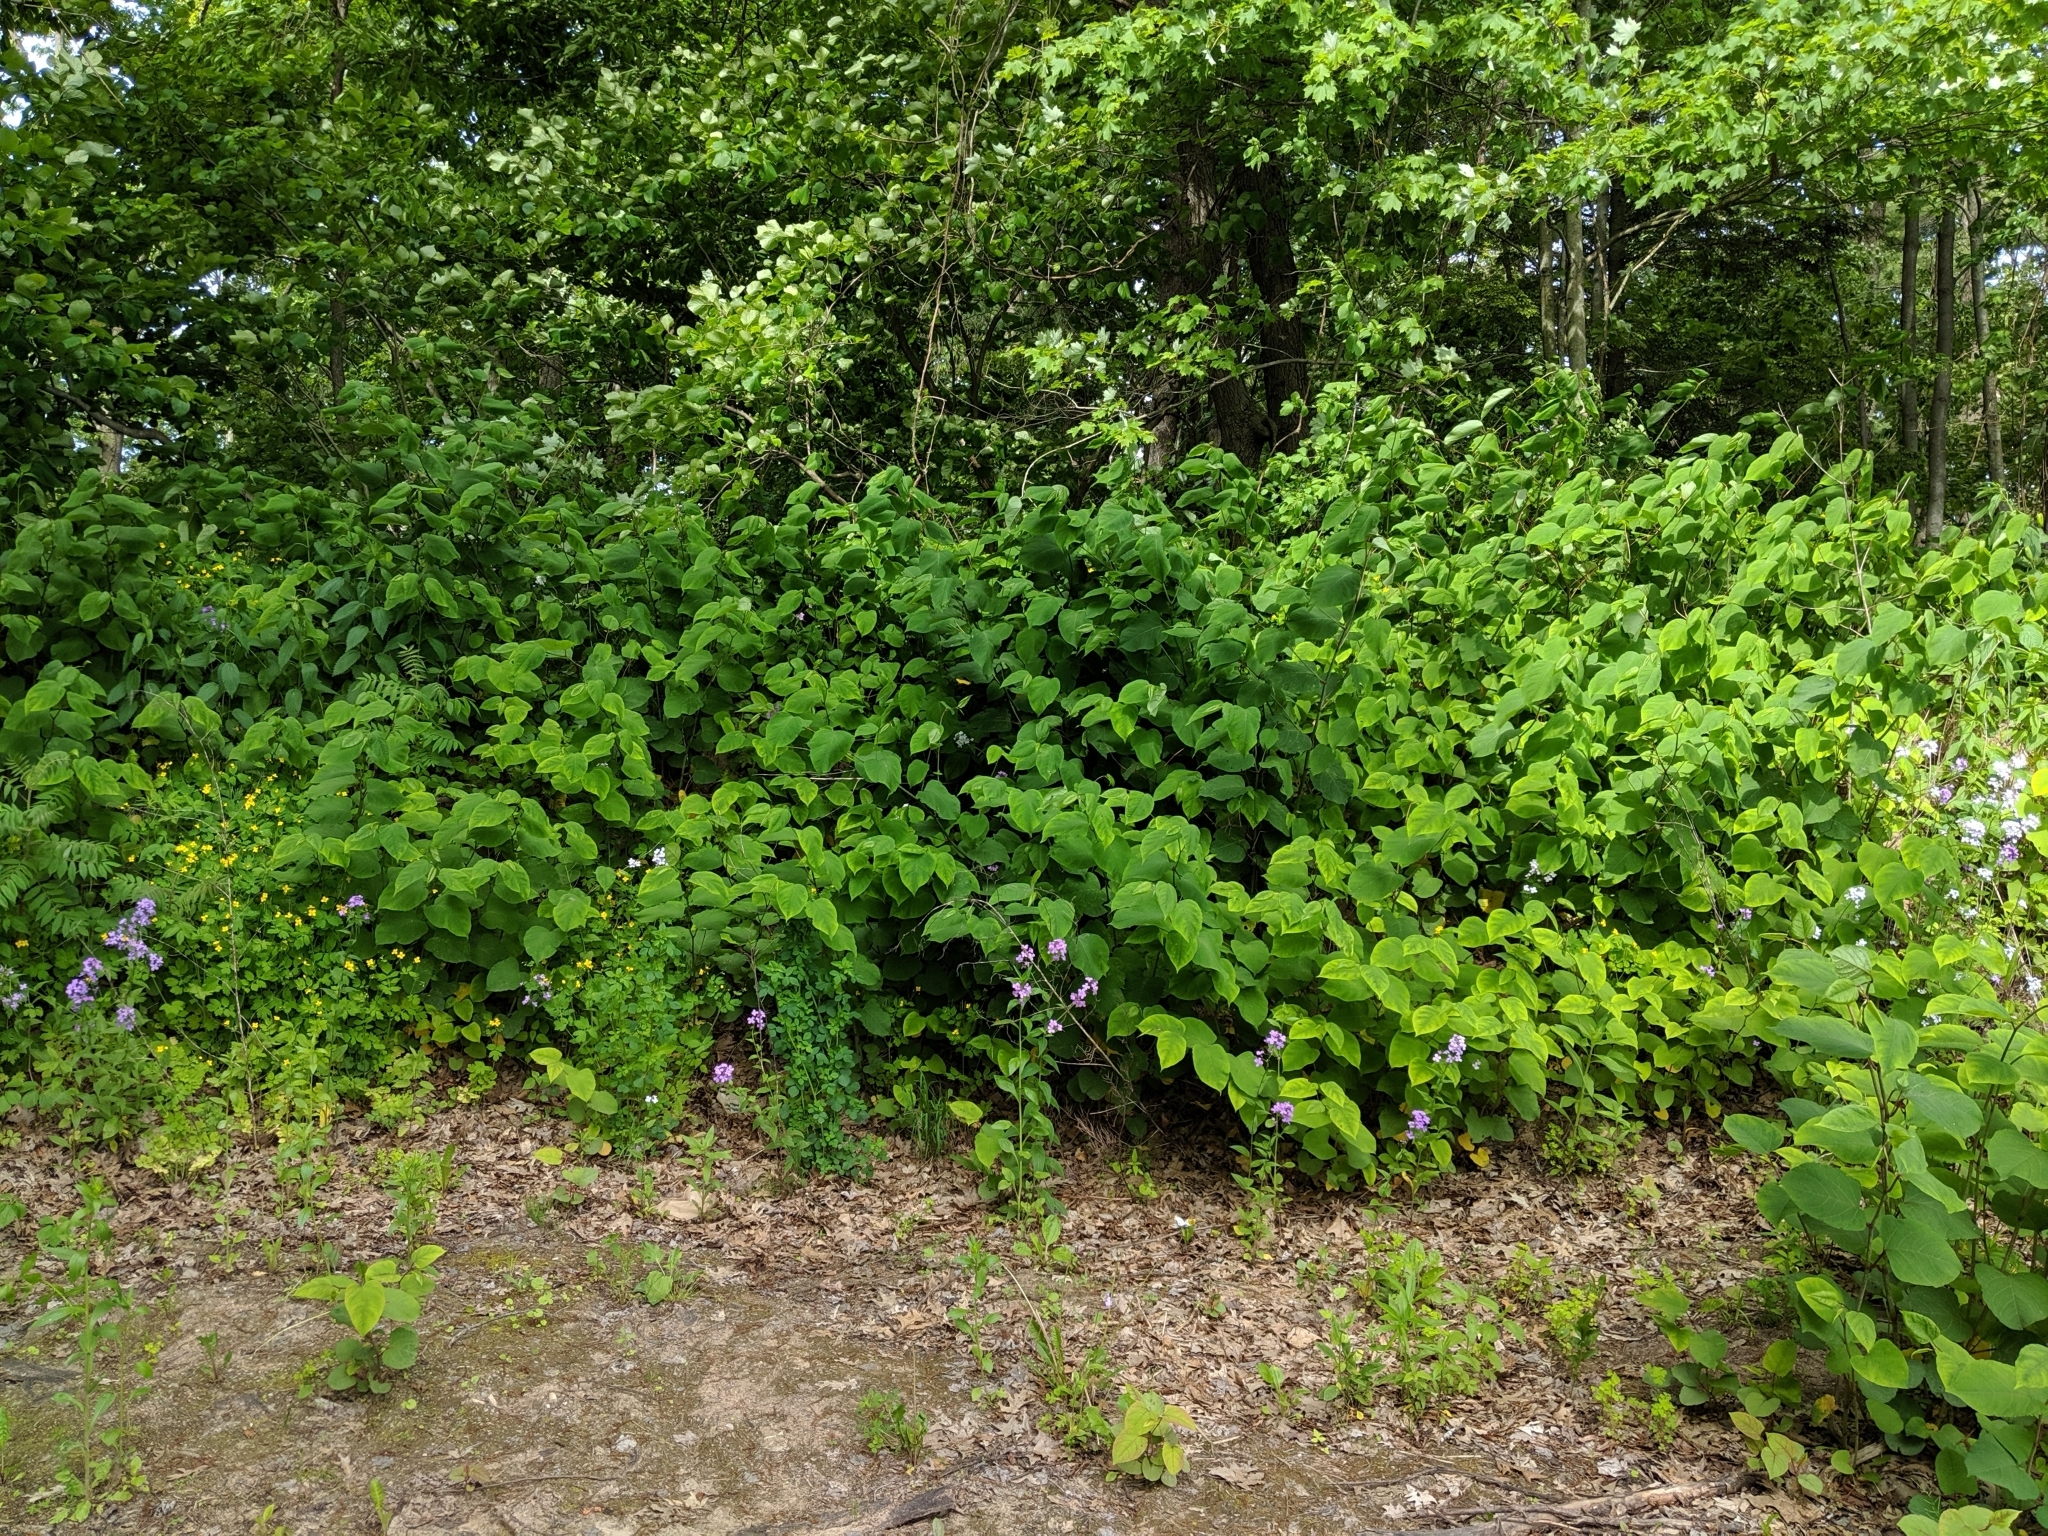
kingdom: Plantae
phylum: Tracheophyta
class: Magnoliopsida
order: Caryophyllales
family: Polygonaceae
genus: Reynoutria
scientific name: Reynoutria japonica
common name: Japanese knotweed
